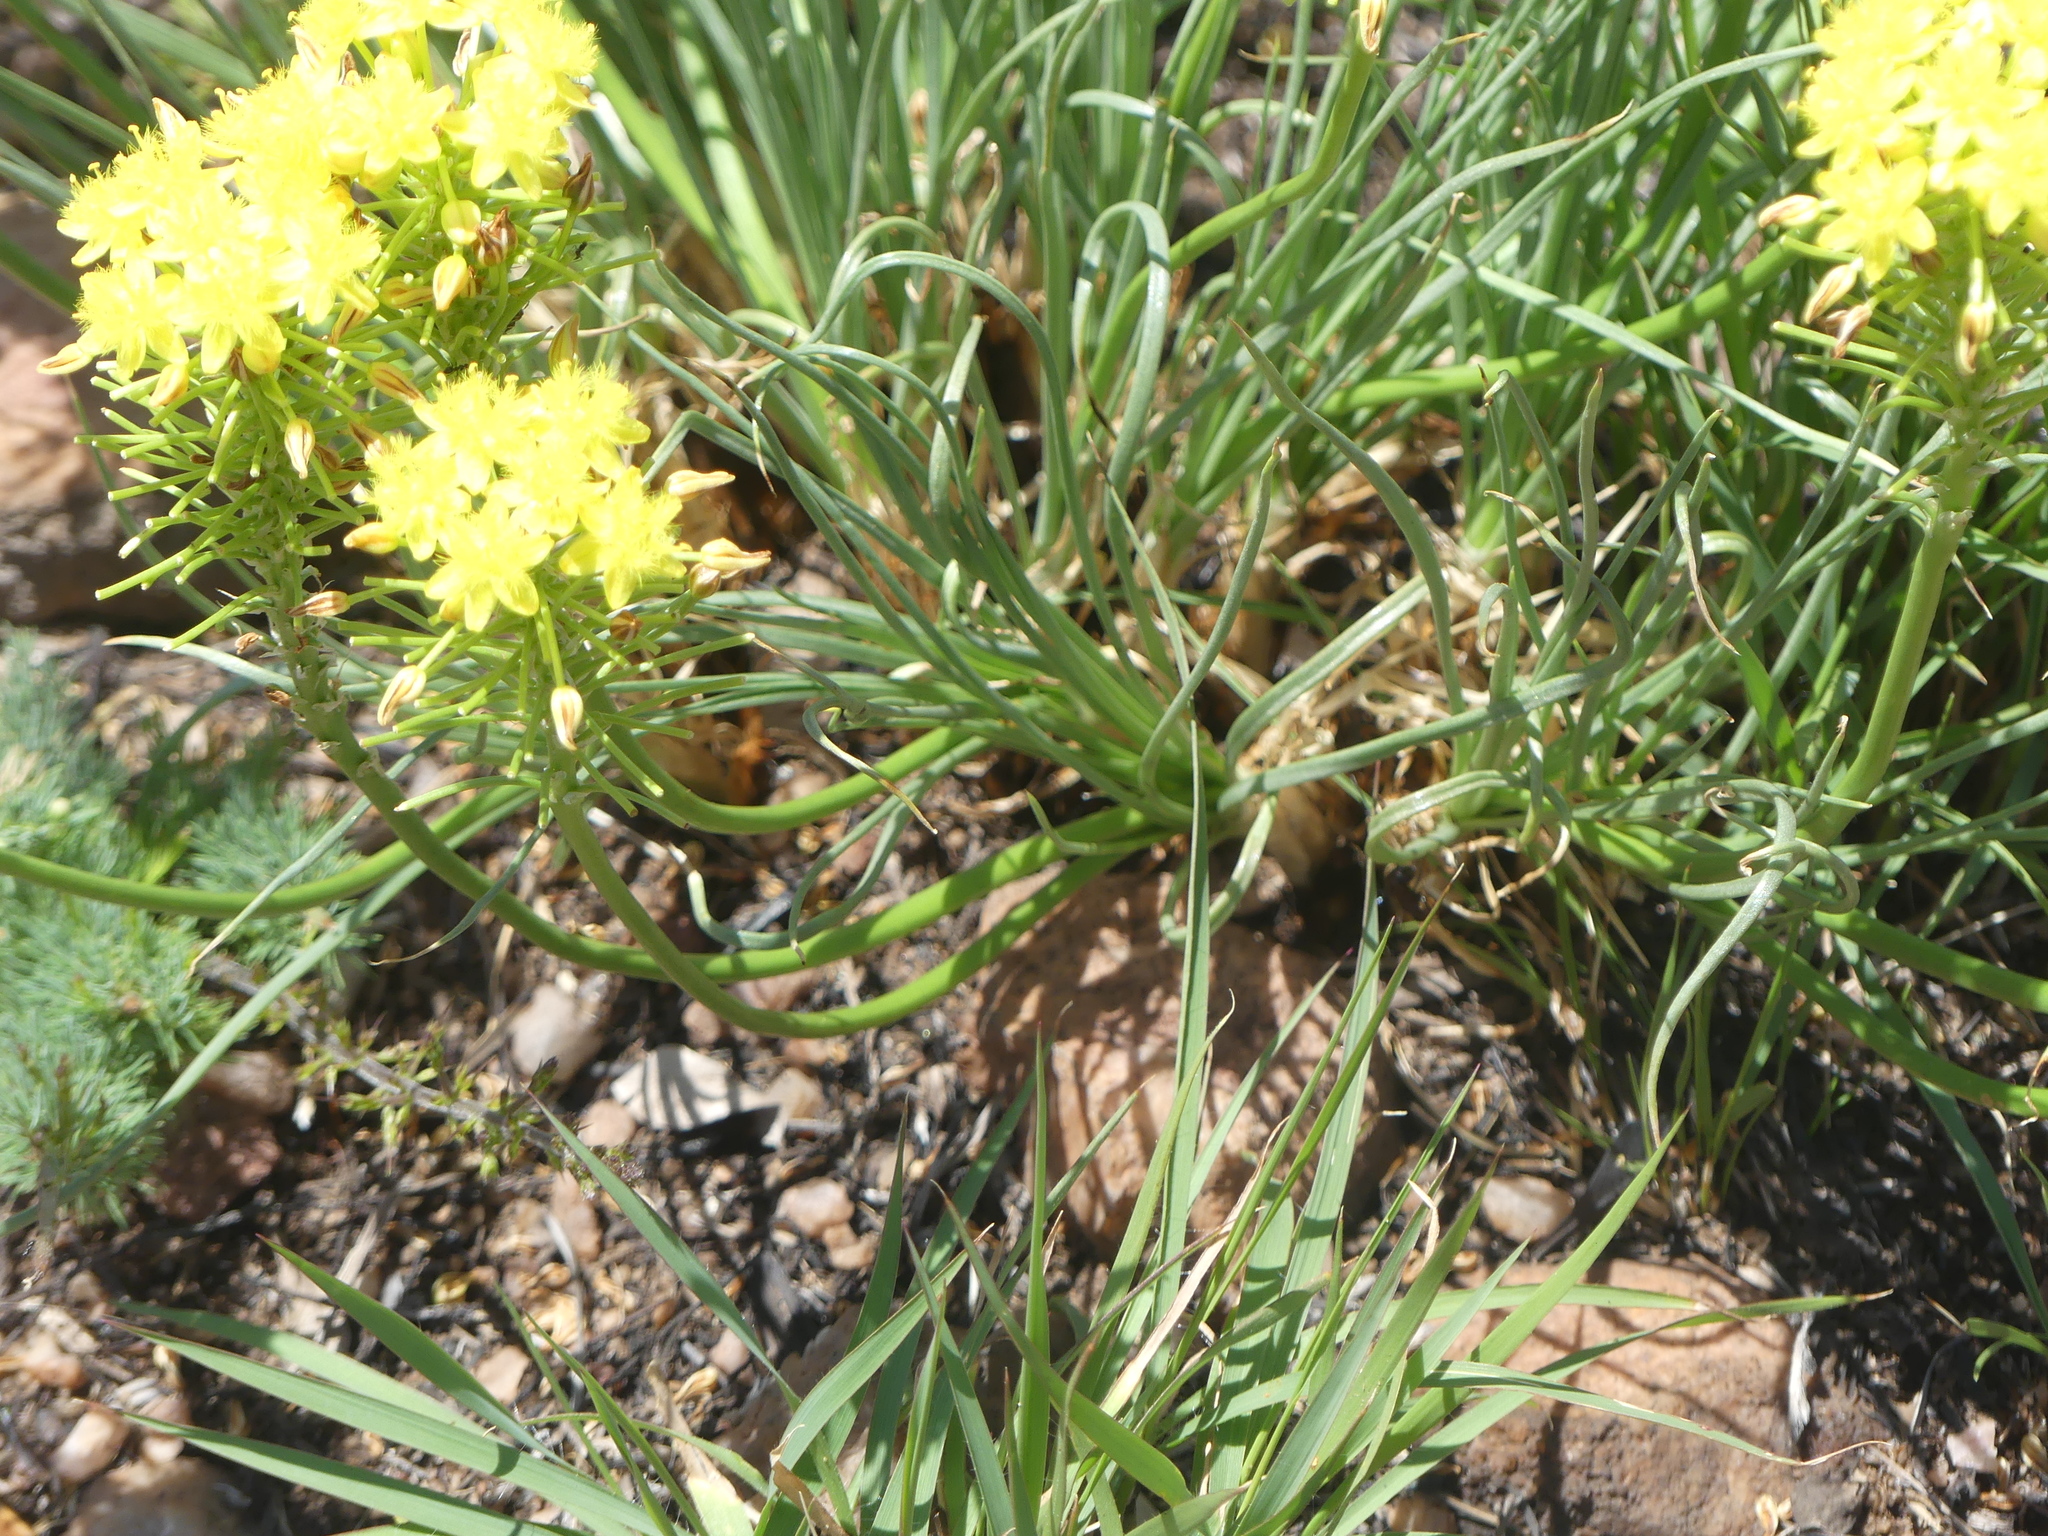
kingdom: Plantae
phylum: Tracheophyta
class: Liliopsida
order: Asparagales
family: Asphodelaceae
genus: Bulbine
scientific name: Bulbine capitata
